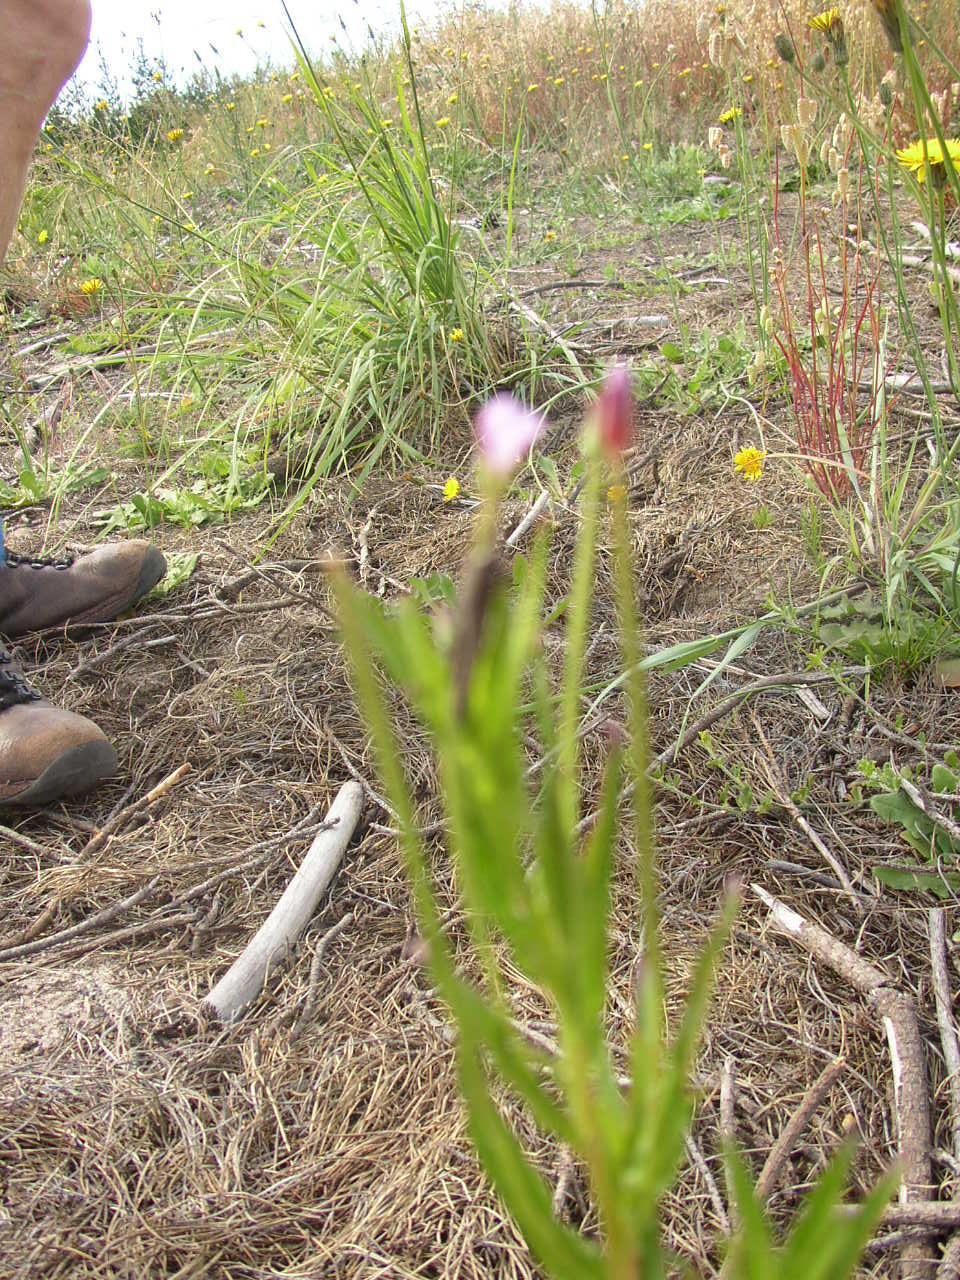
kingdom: Plantae
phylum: Tracheophyta
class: Magnoliopsida
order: Myrtales
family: Onagraceae
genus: Epilobium
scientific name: Epilobium tetragonum
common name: Square-stemmed willowherb
